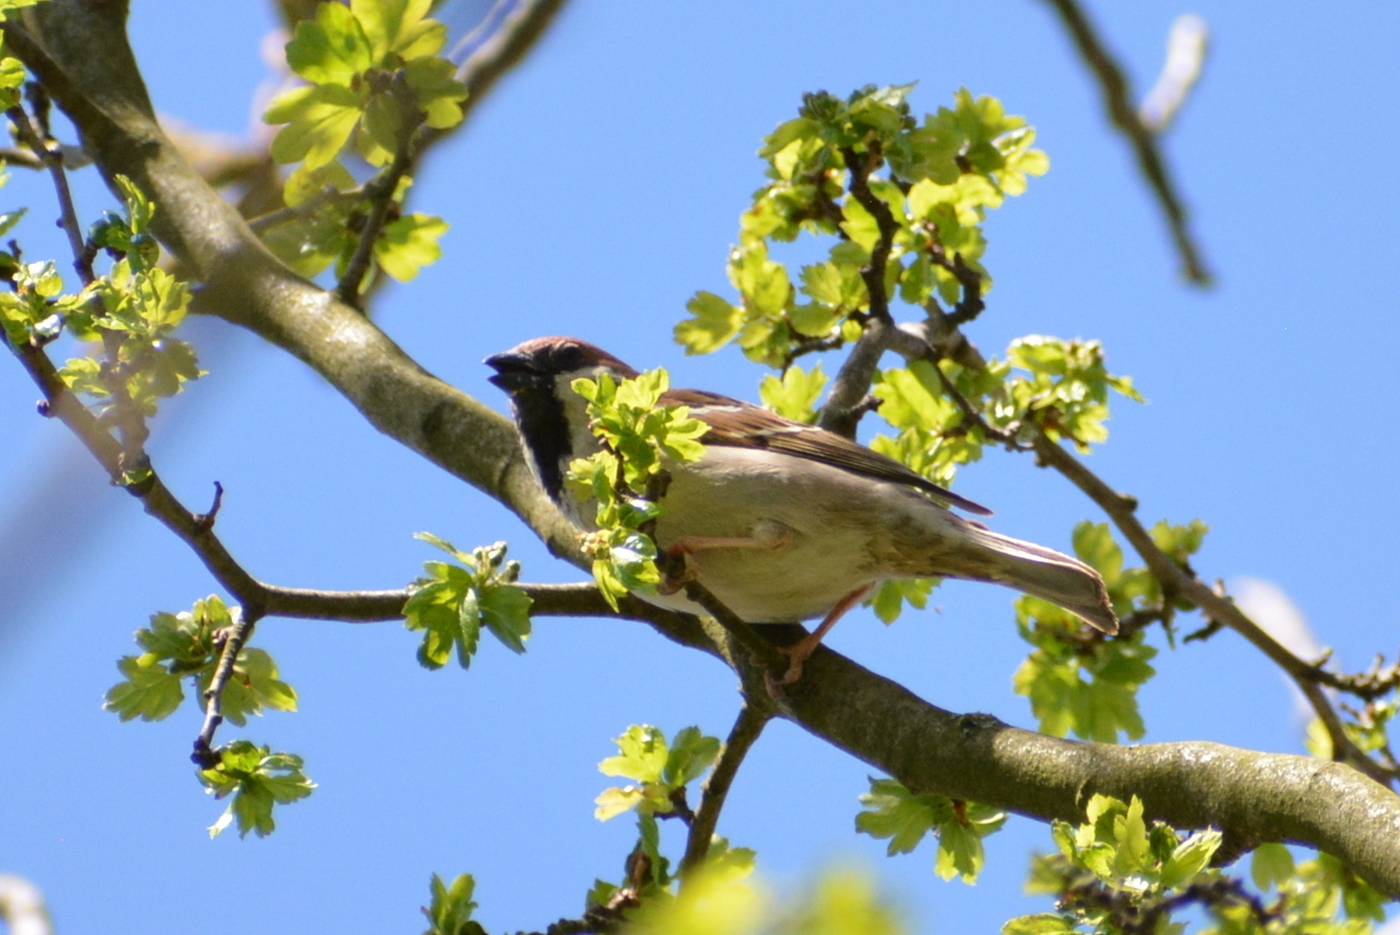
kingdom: Animalia
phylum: Chordata
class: Aves
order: Passeriformes
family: Passeridae
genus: Passer
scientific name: Passer montanus
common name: Eurasian tree sparrow
